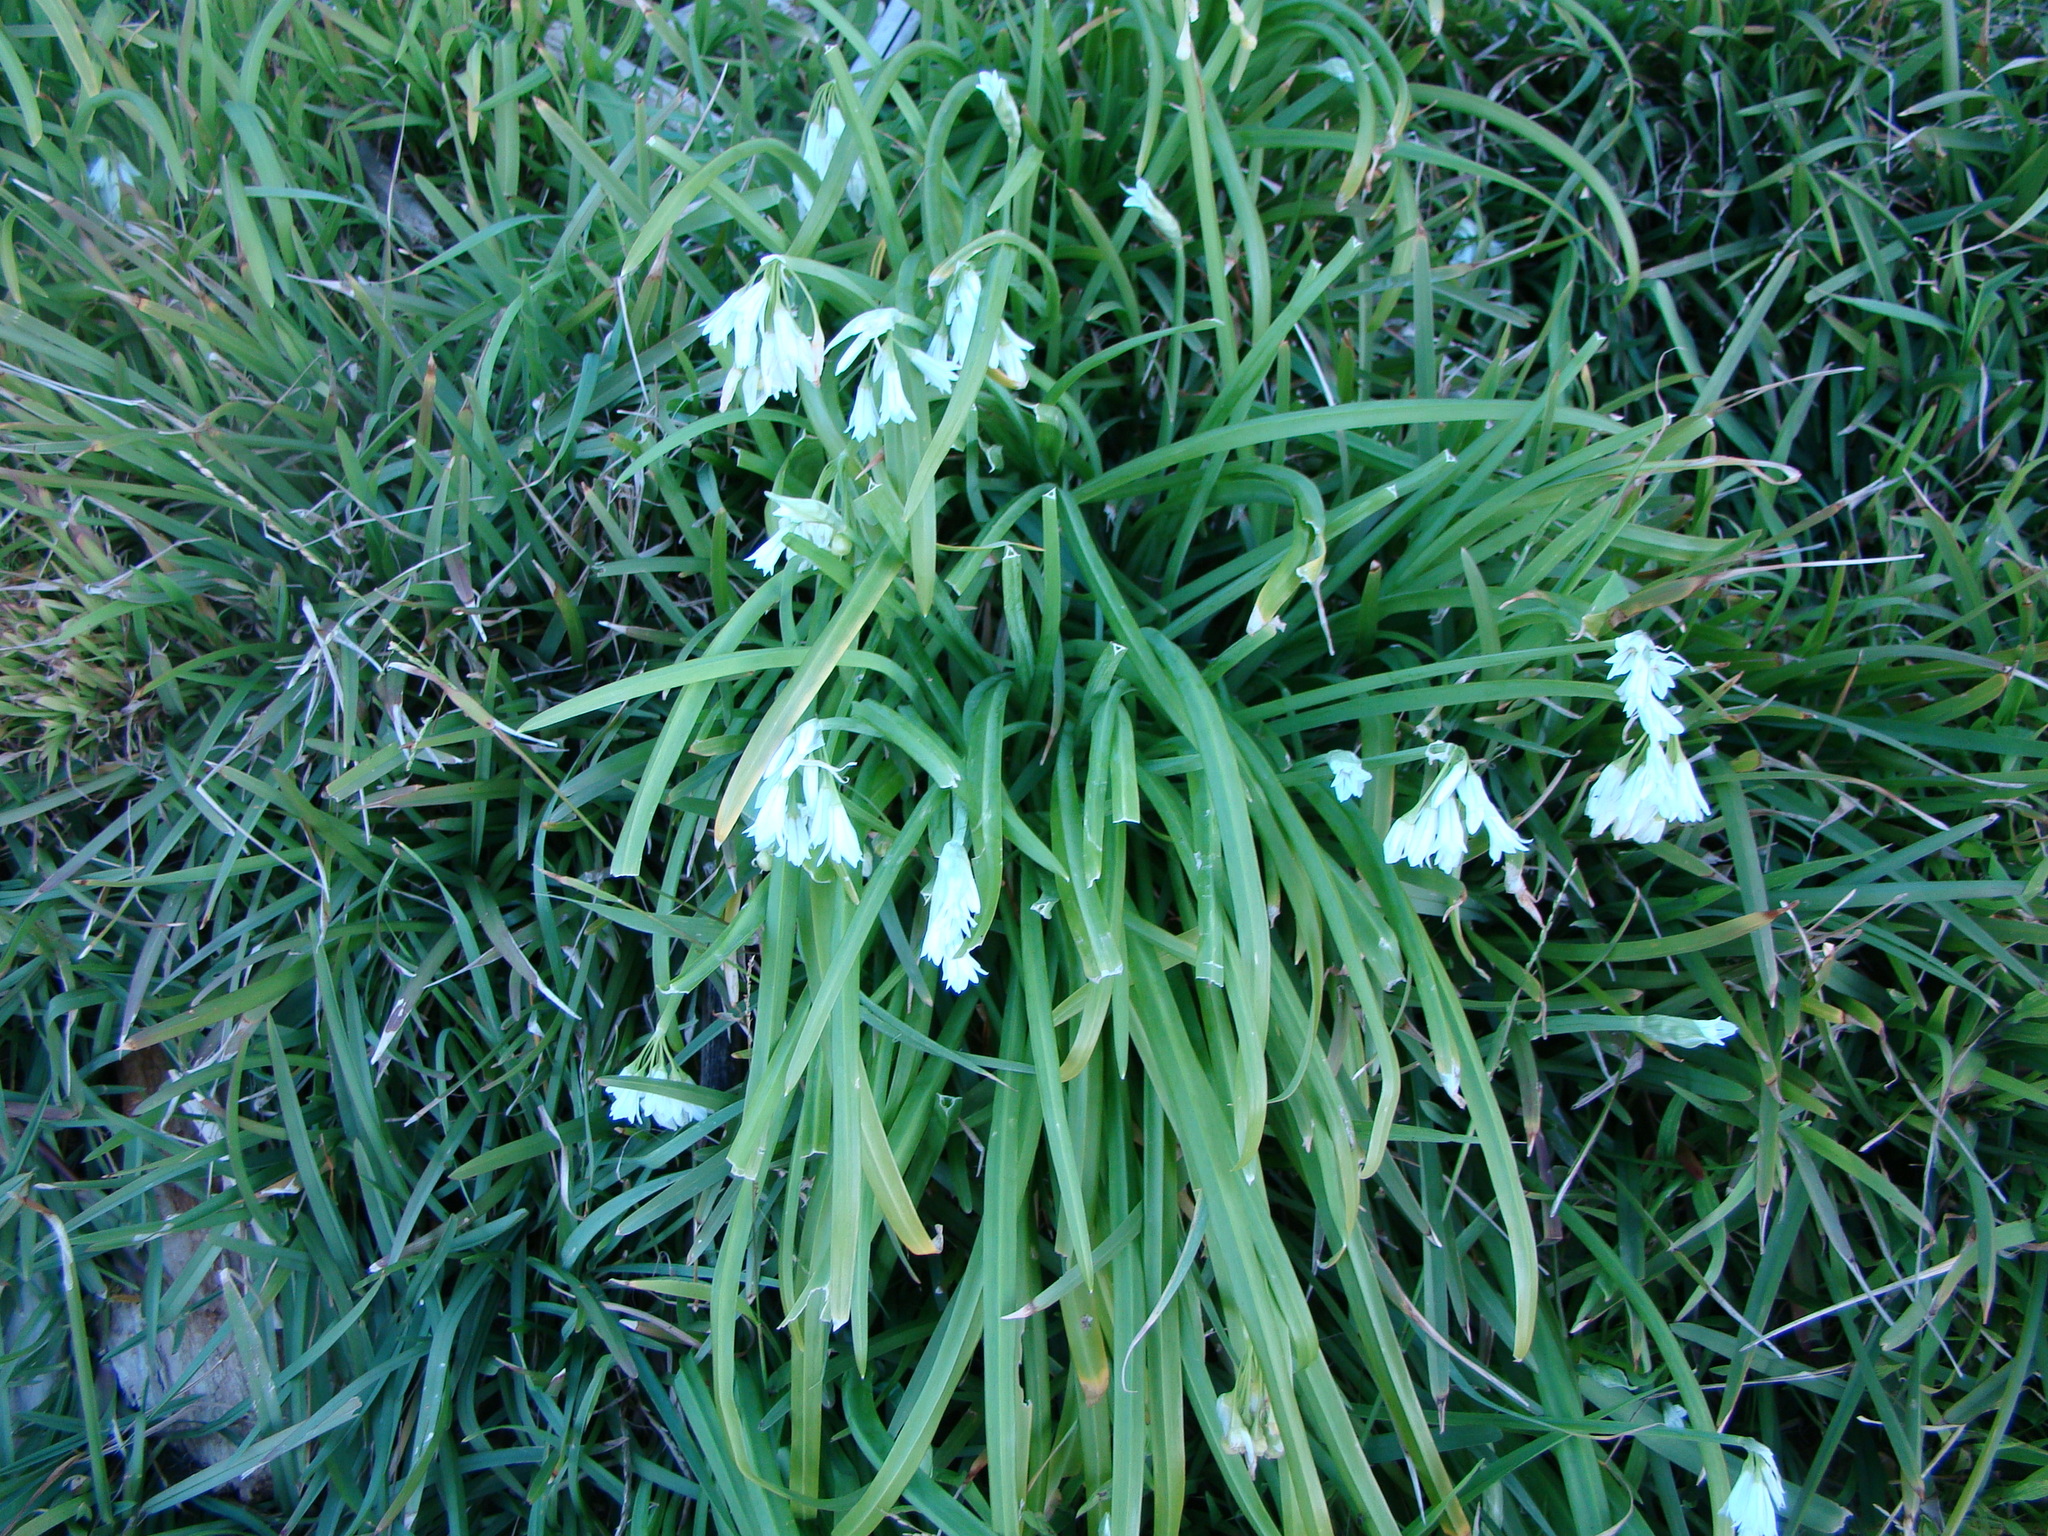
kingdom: Plantae
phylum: Tracheophyta
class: Liliopsida
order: Asparagales
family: Amaryllidaceae
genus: Allium
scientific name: Allium triquetrum
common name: Three-cornered garlic
